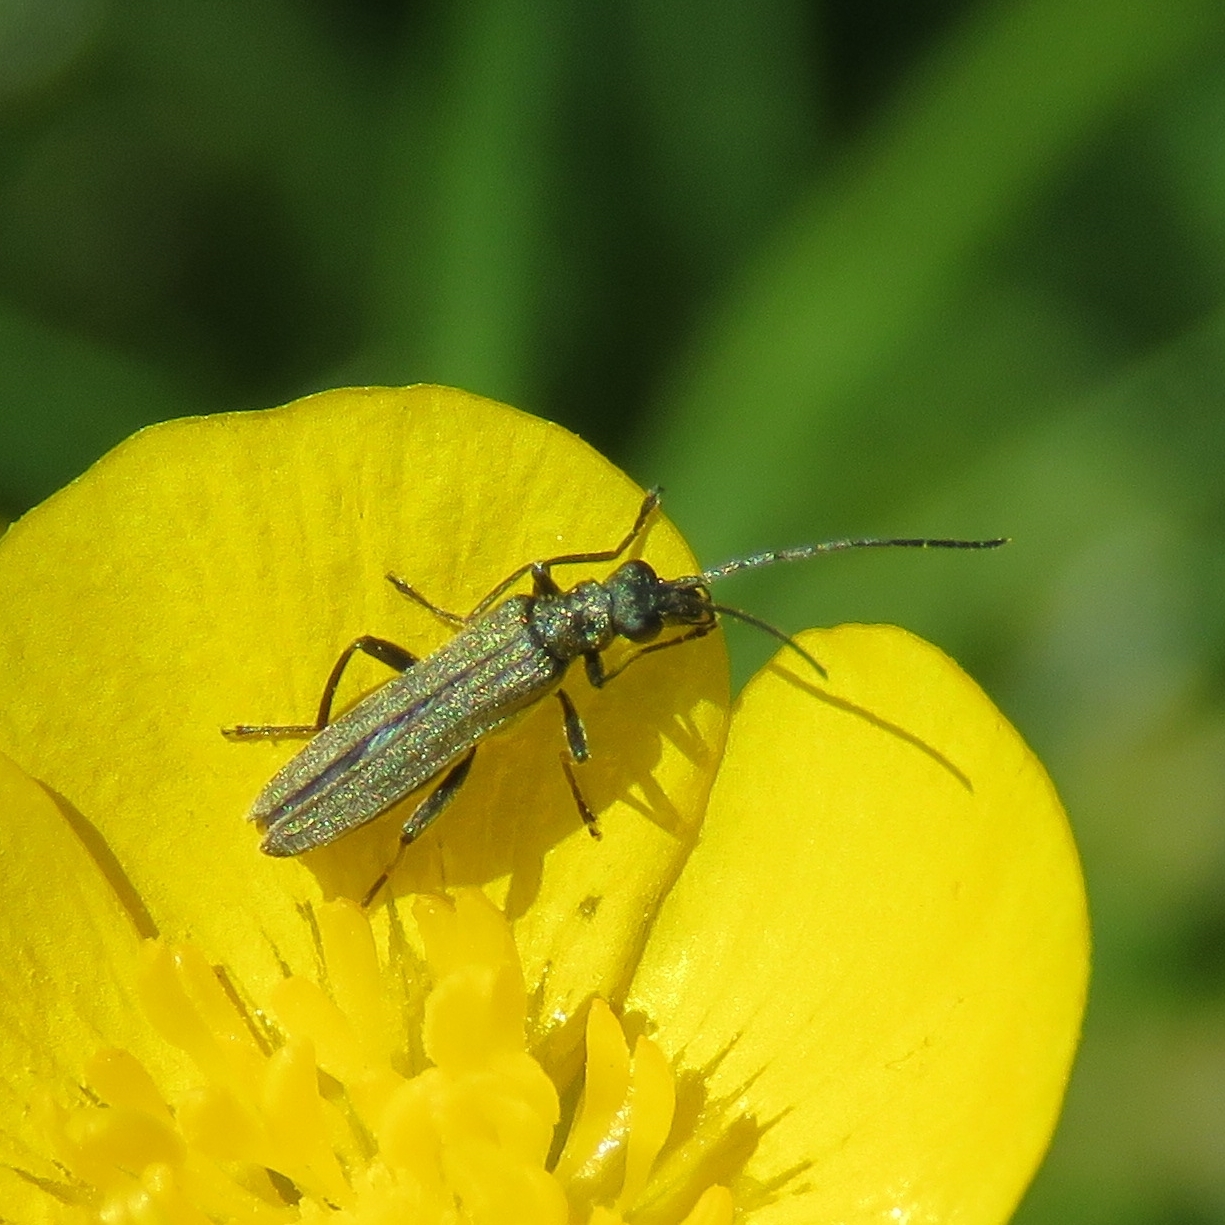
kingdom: Animalia
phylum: Arthropoda
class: Insecta
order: Coleoptera
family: Oedemeridae
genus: Oedemera
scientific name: Oedemera lurida
